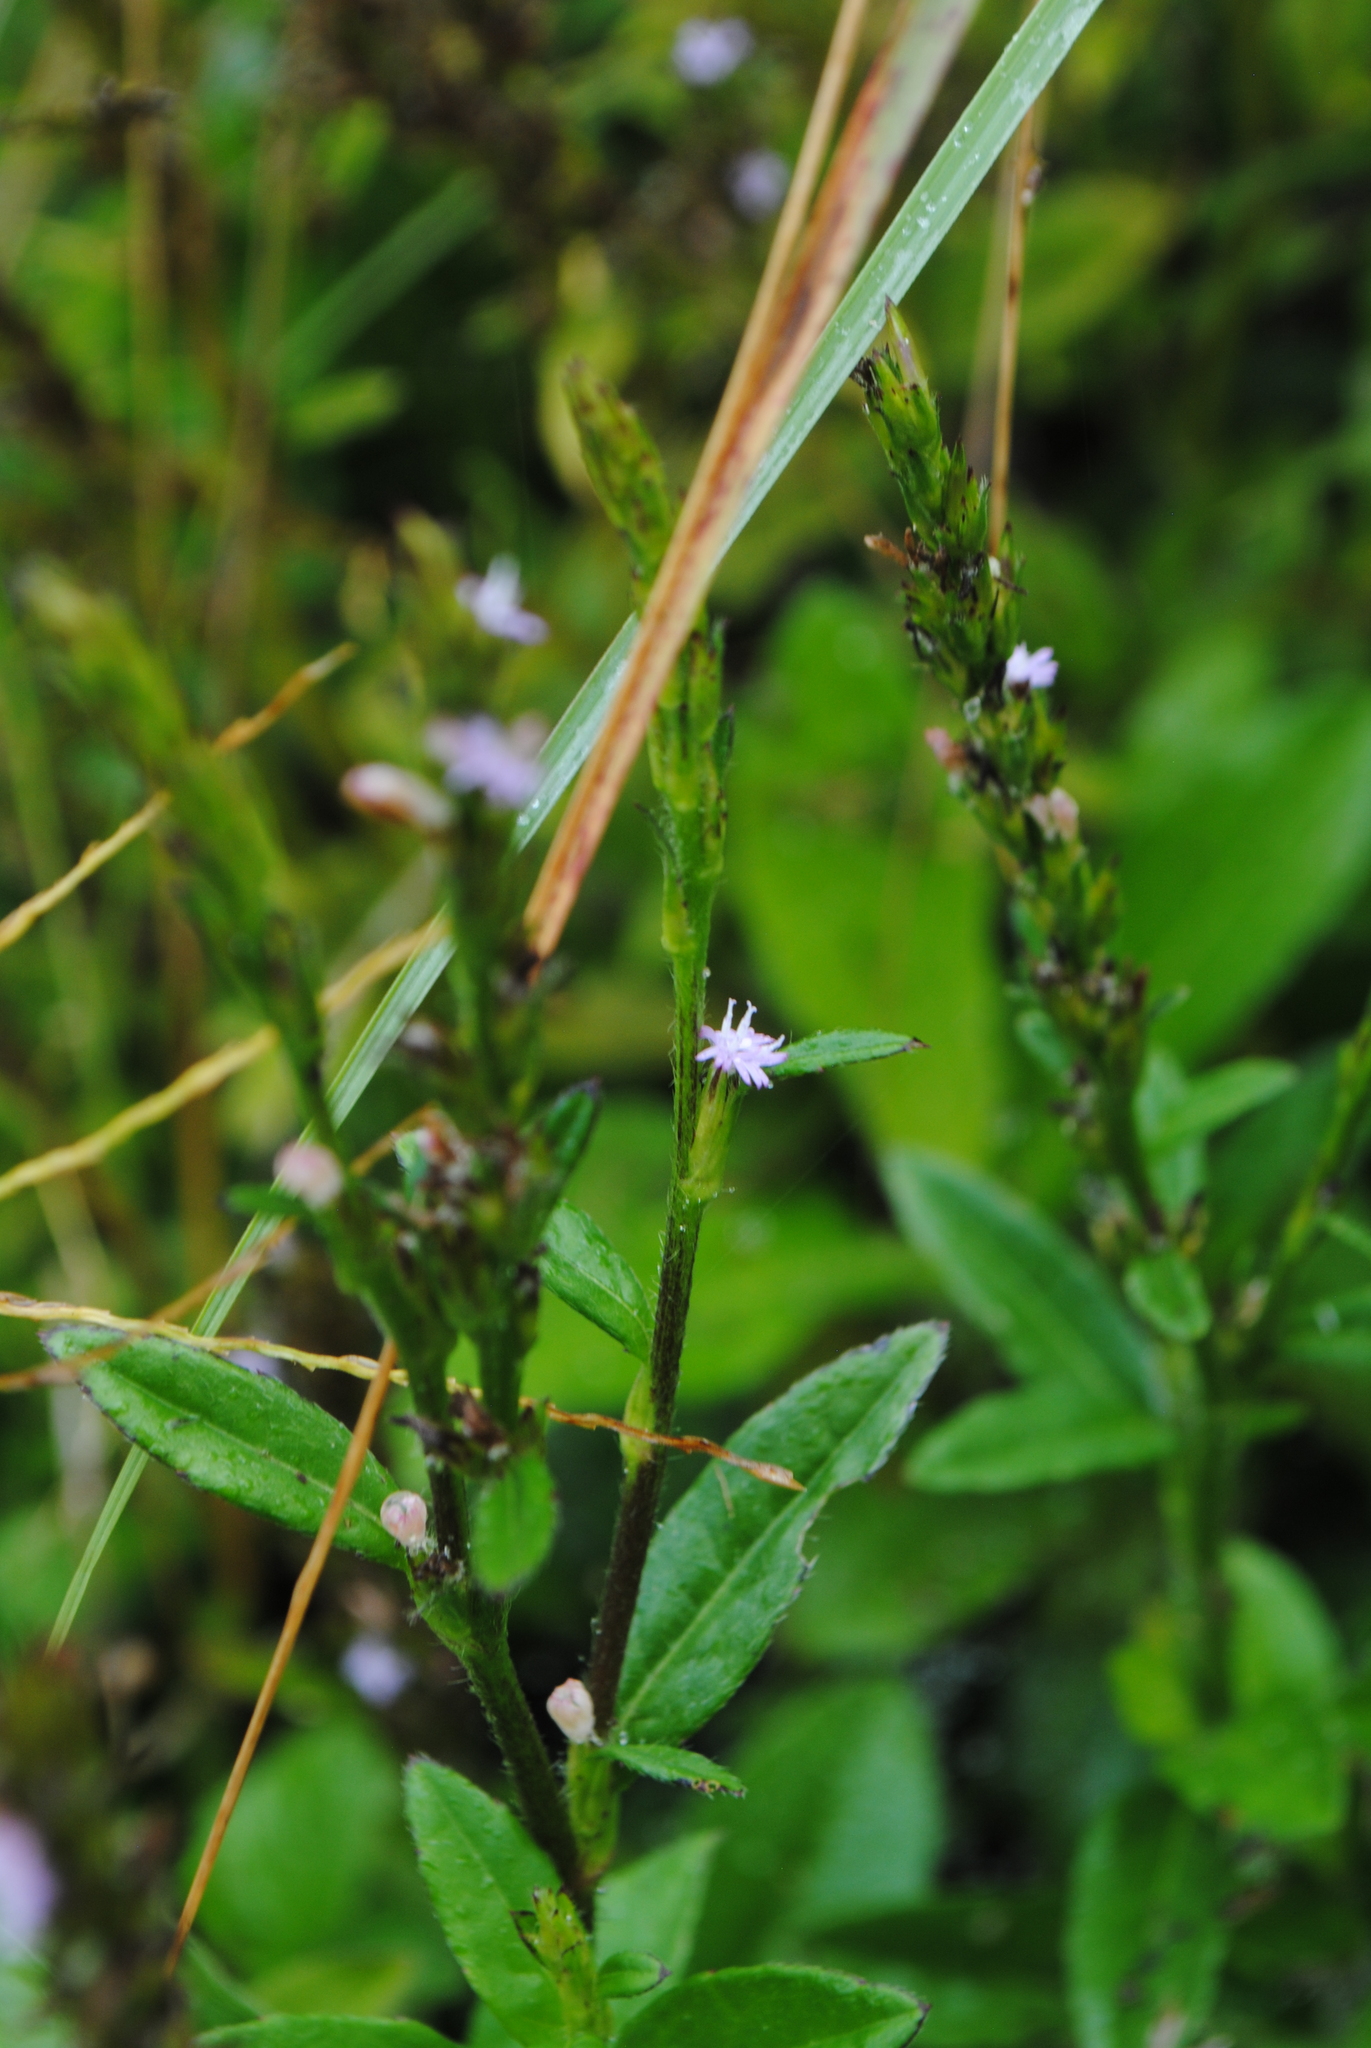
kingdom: Plantae
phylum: Tracheophyta
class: Magnoliopsida
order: Asterales
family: Asteraceae
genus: Pseudelephantopus
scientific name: Pseudelephantopus spicatus
